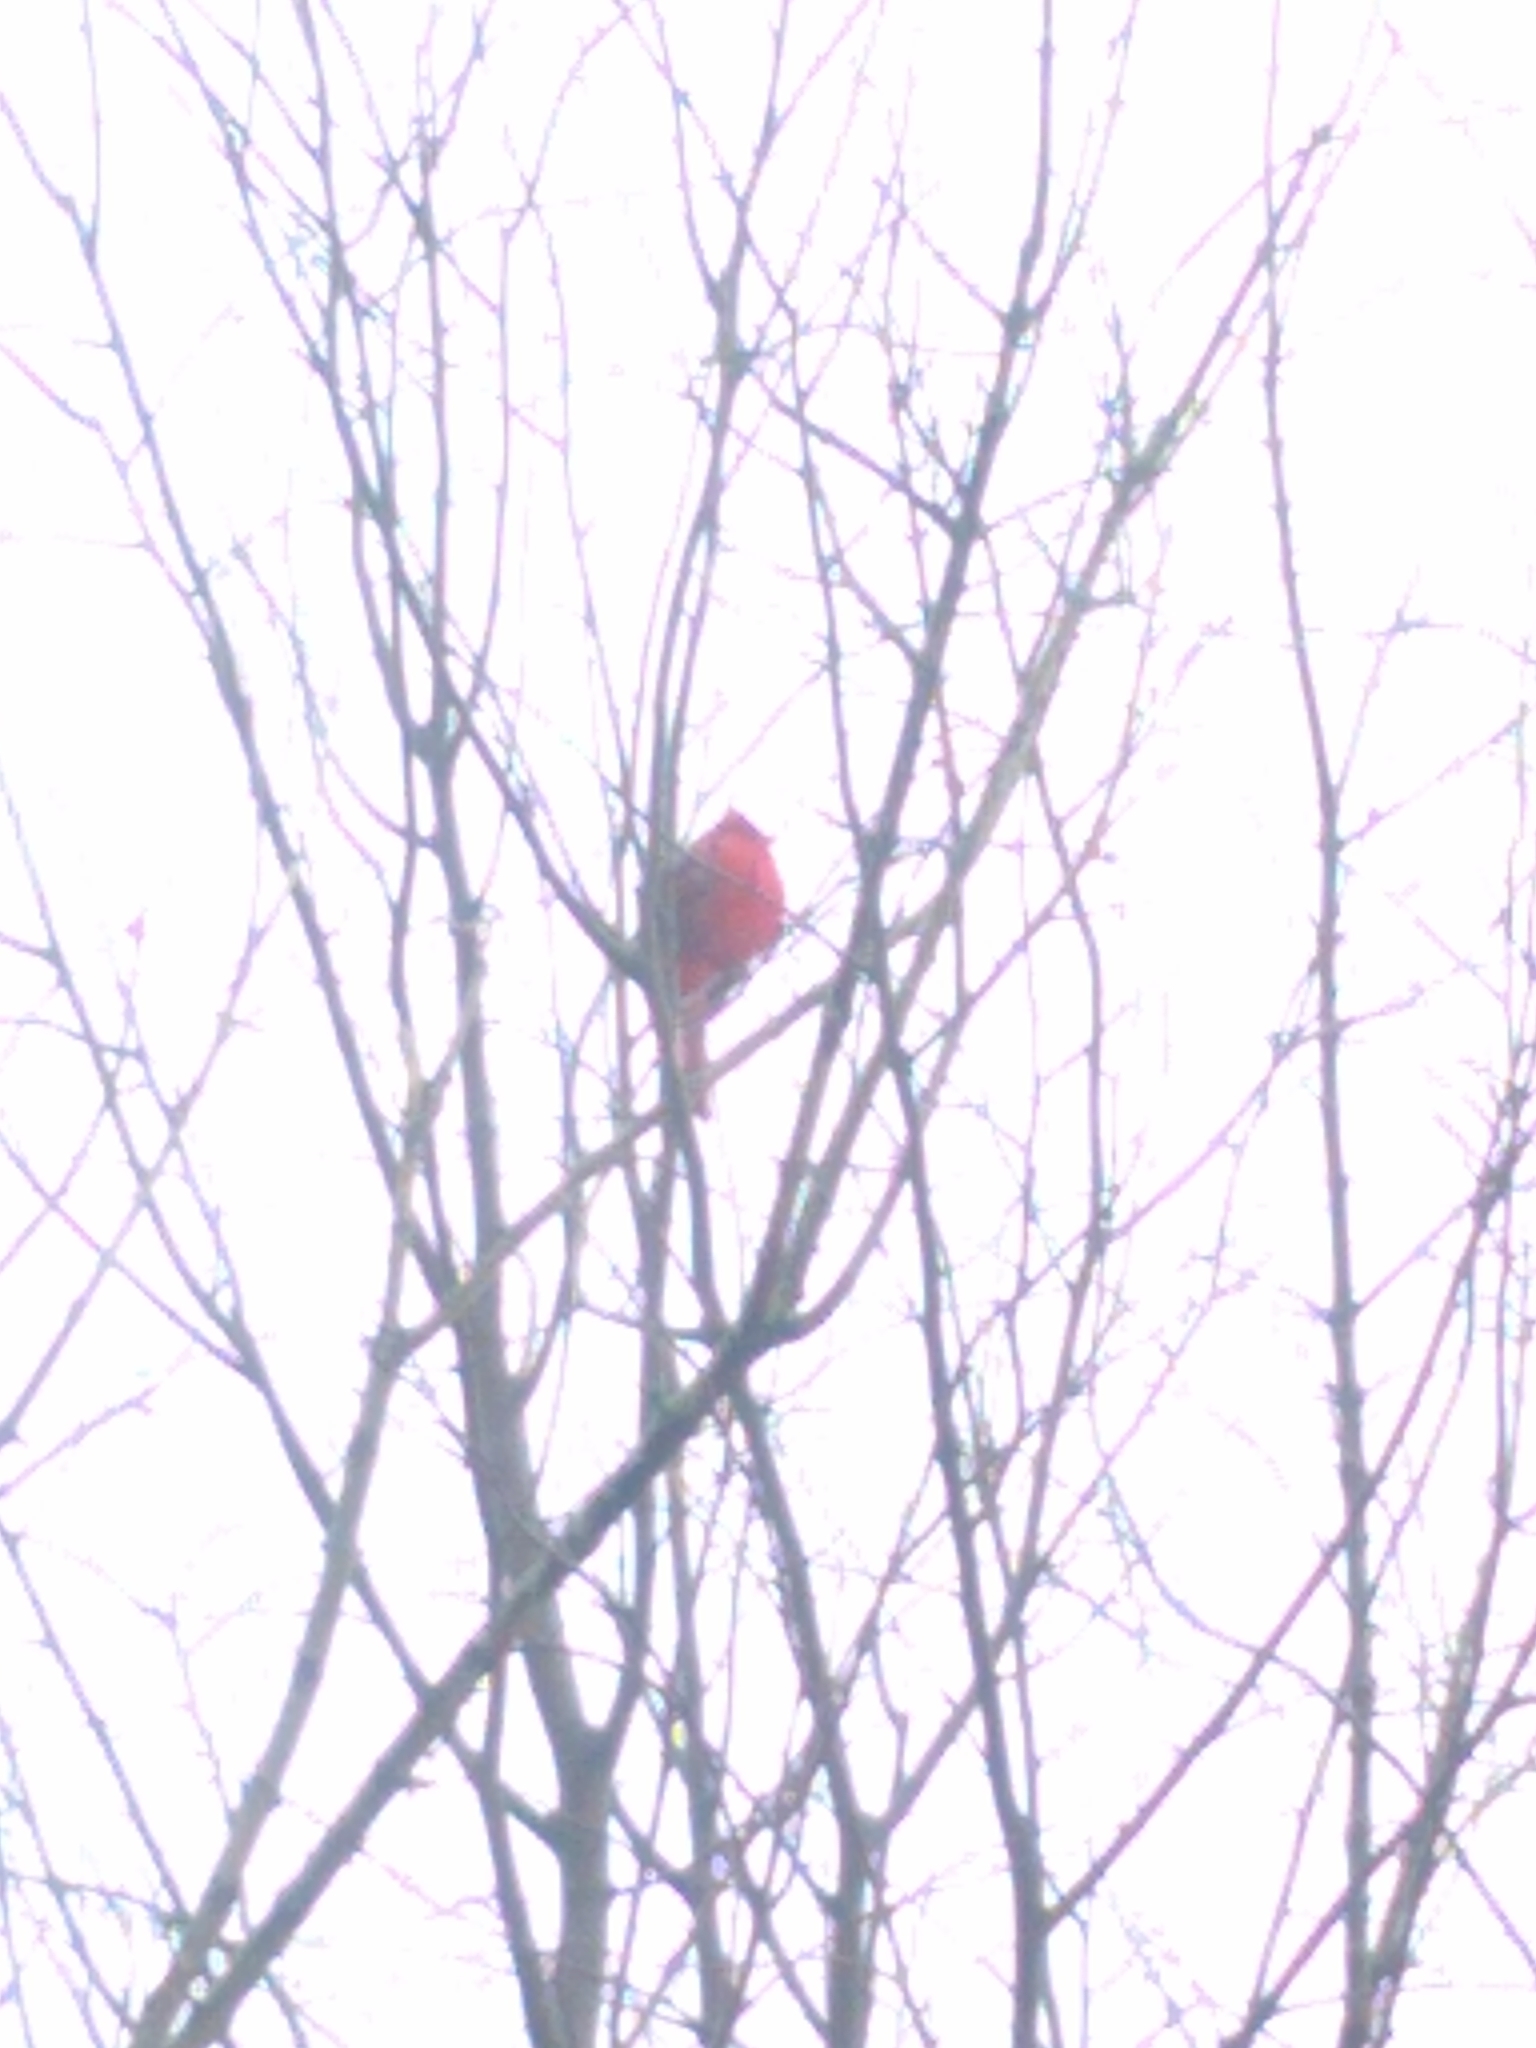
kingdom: Animalia
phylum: Chordata
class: Aves
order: Passeriformes
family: Cardinalidae
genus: Cardinalis
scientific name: Cardinalis cardinalis
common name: Northern cardinal
